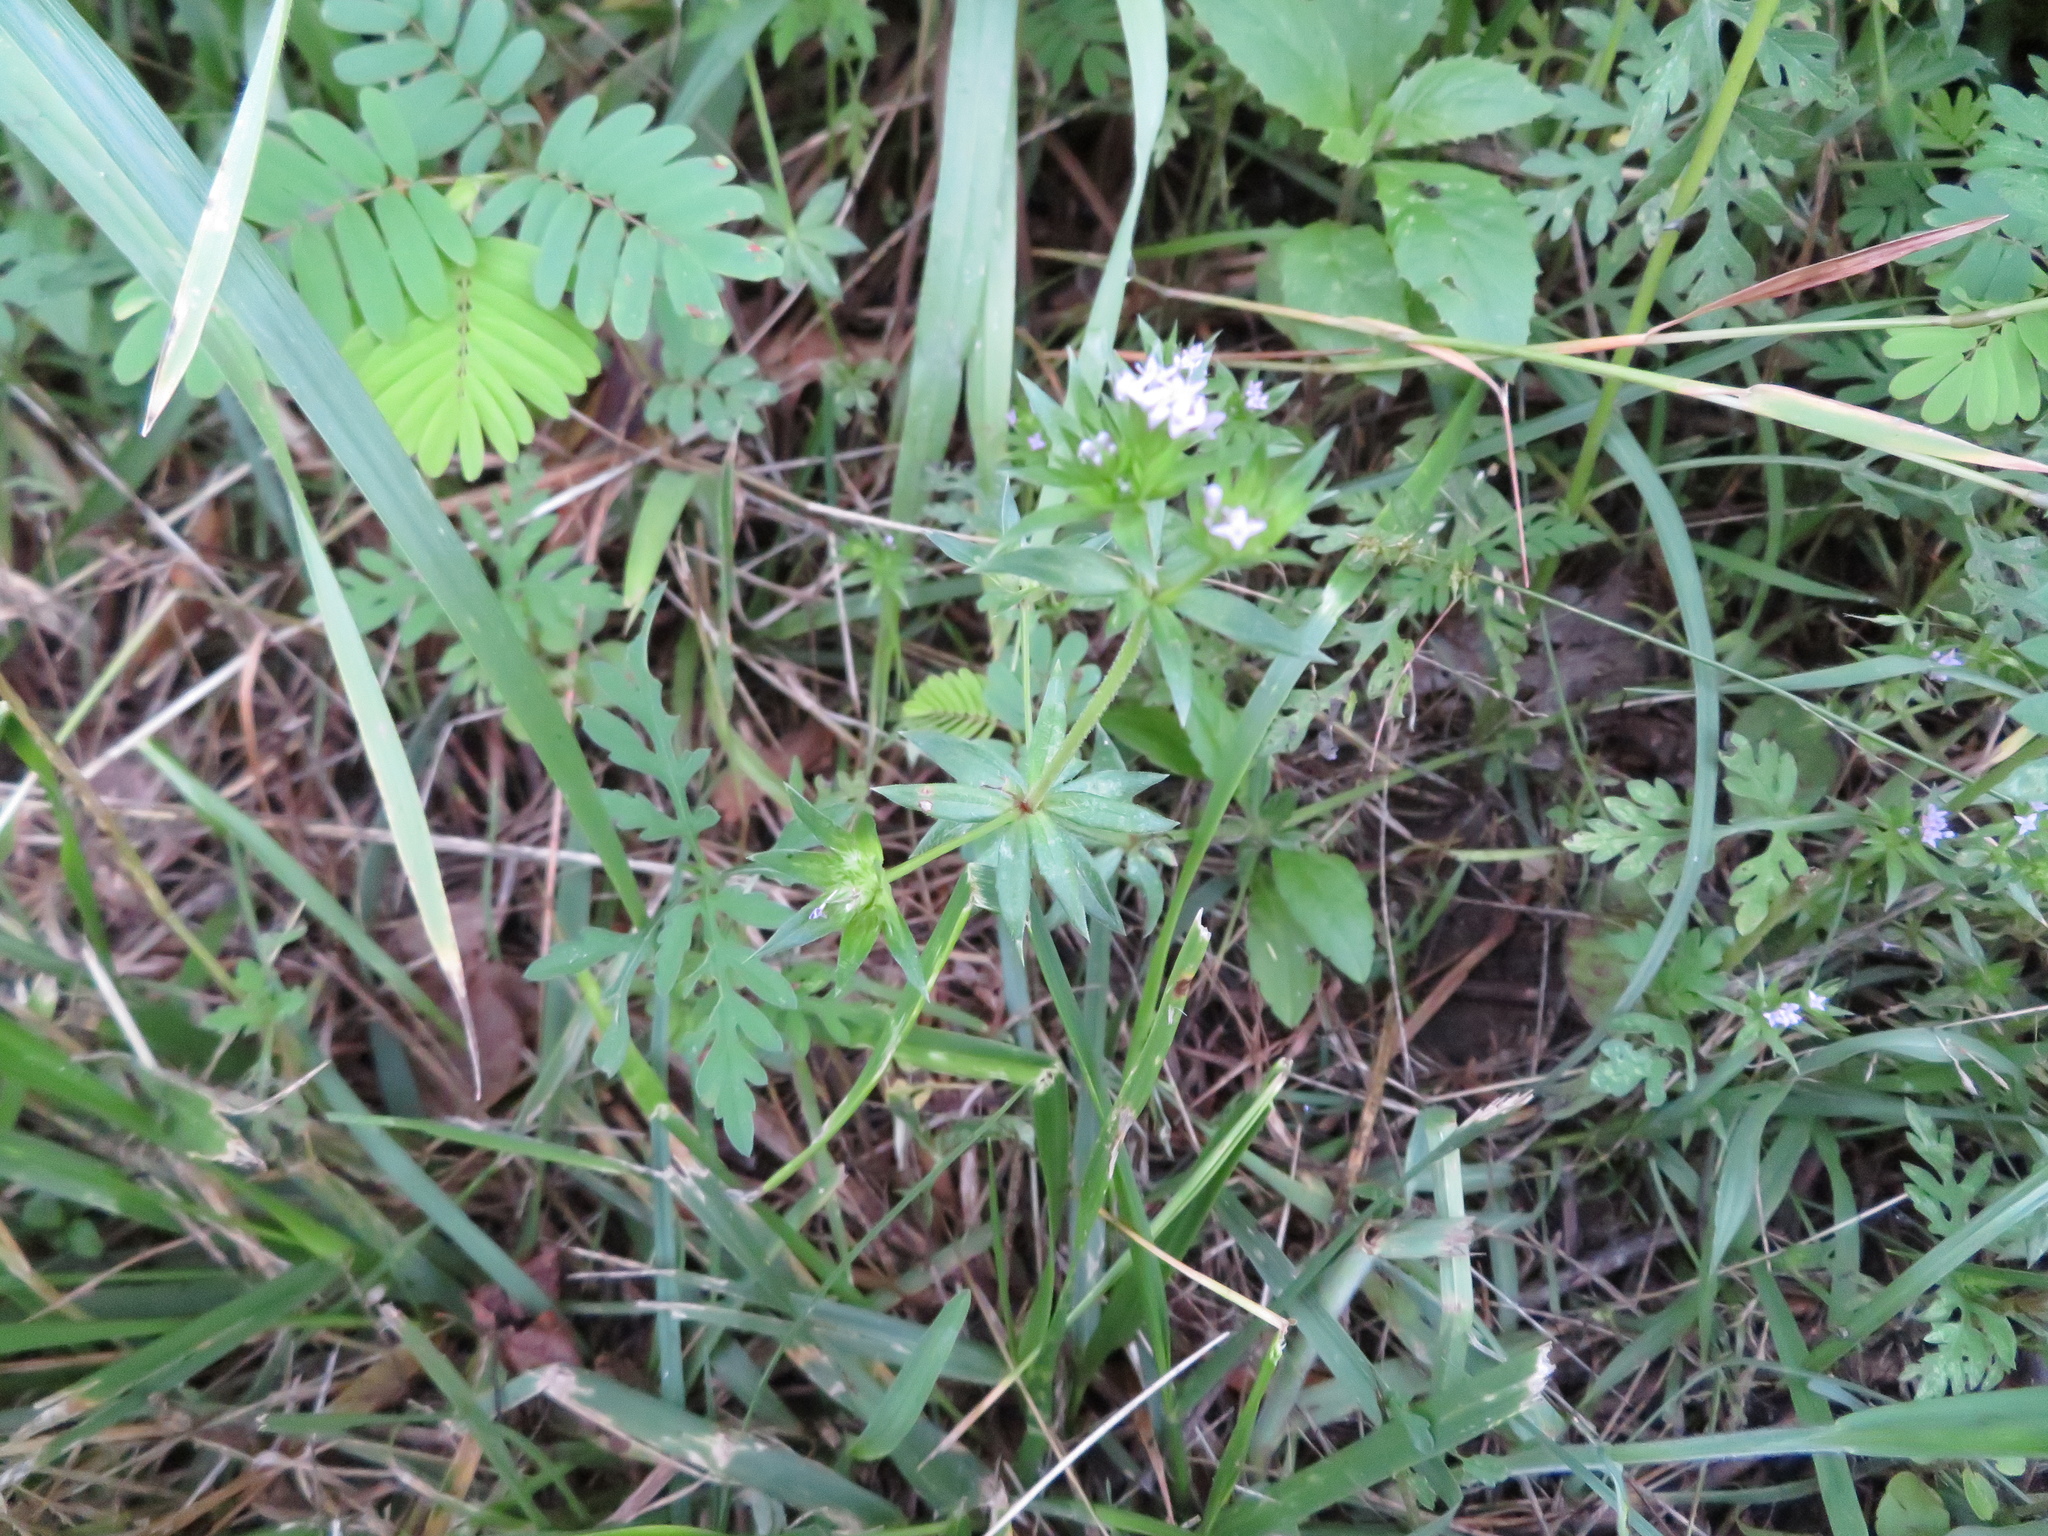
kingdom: Plantae
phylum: Tracheophyta
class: Magnoliopsida
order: Gentianales
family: Rubiaceae
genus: Sherardia
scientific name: Sherardia arvensis
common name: Field madder
